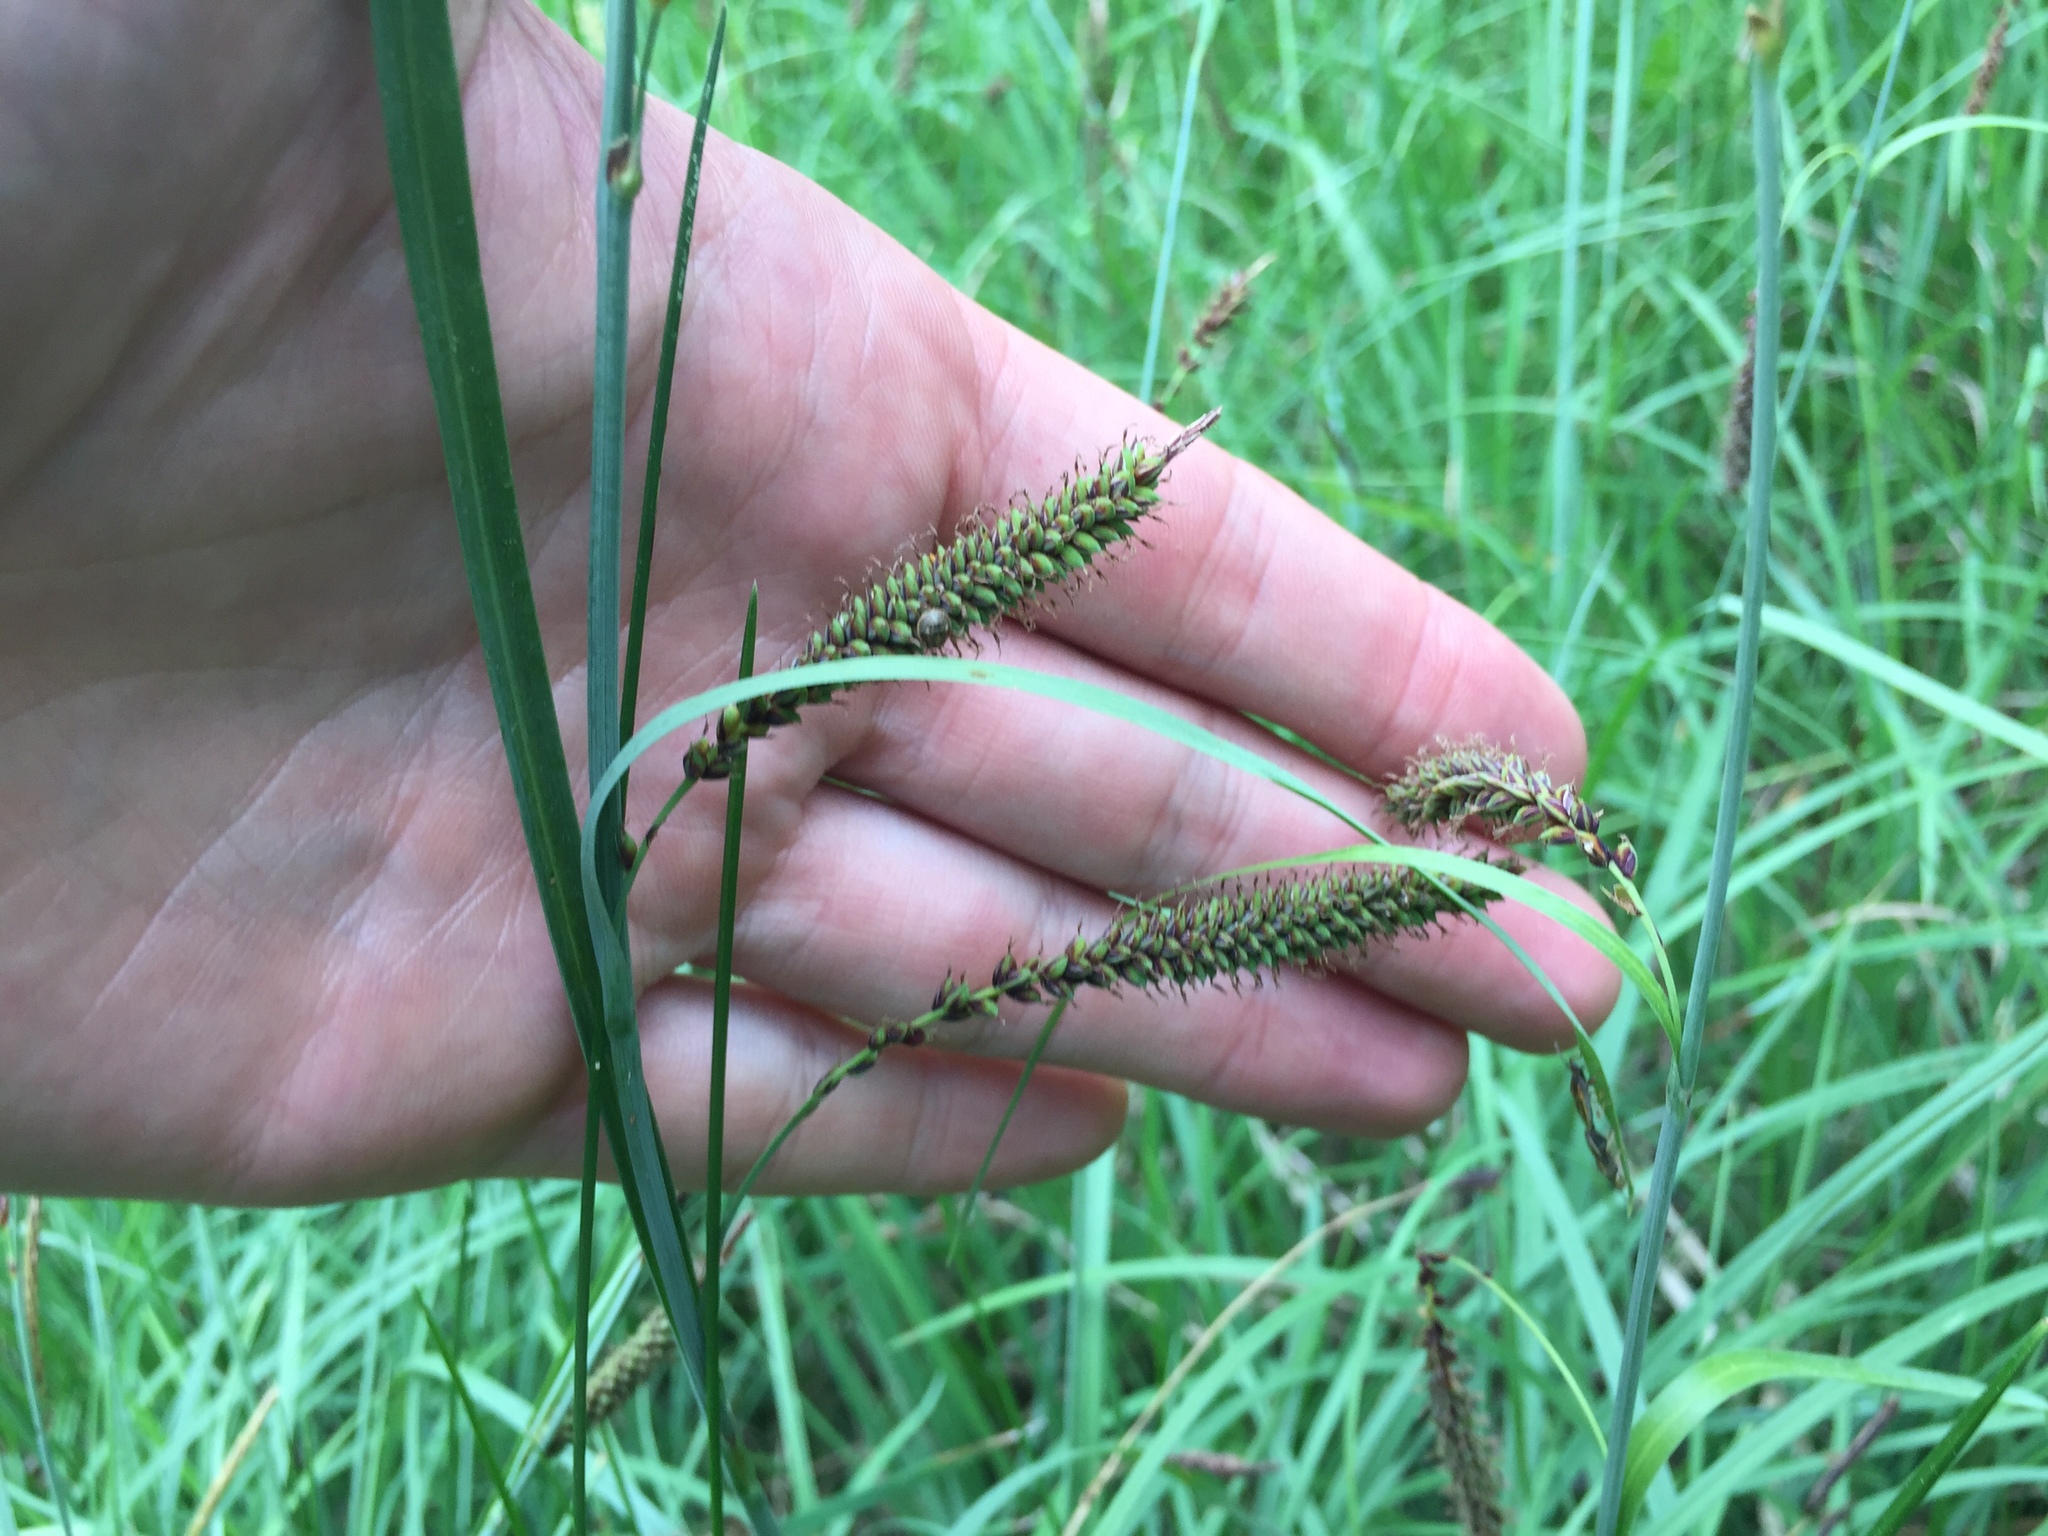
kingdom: Plantae
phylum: Tracheophyta
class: Liliopsida
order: Poales
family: Cyperaceae
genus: Carex
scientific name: Carex flacca
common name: Glaucous sedge
